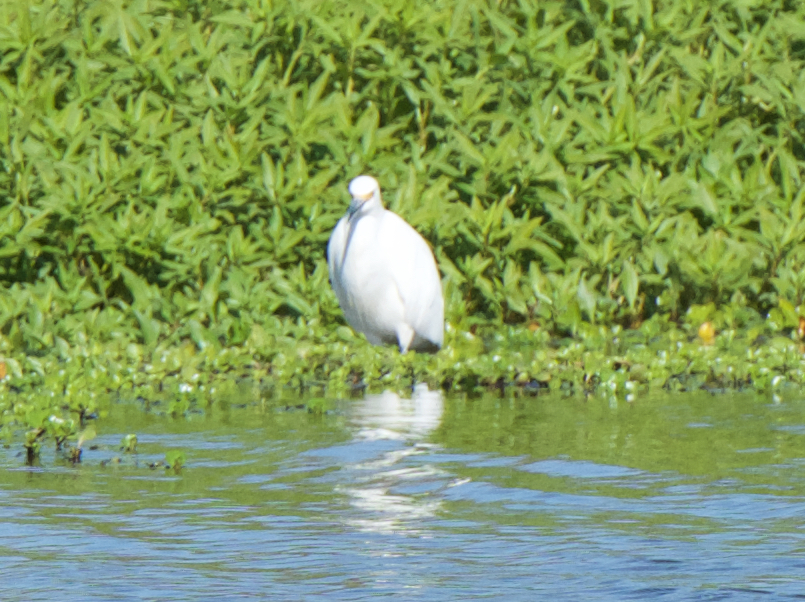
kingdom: Animalia
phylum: Chordata
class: Aves
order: Pelecaniformes
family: Ardeidae
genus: Egretta
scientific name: Egretta thula
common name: Snowy egret
